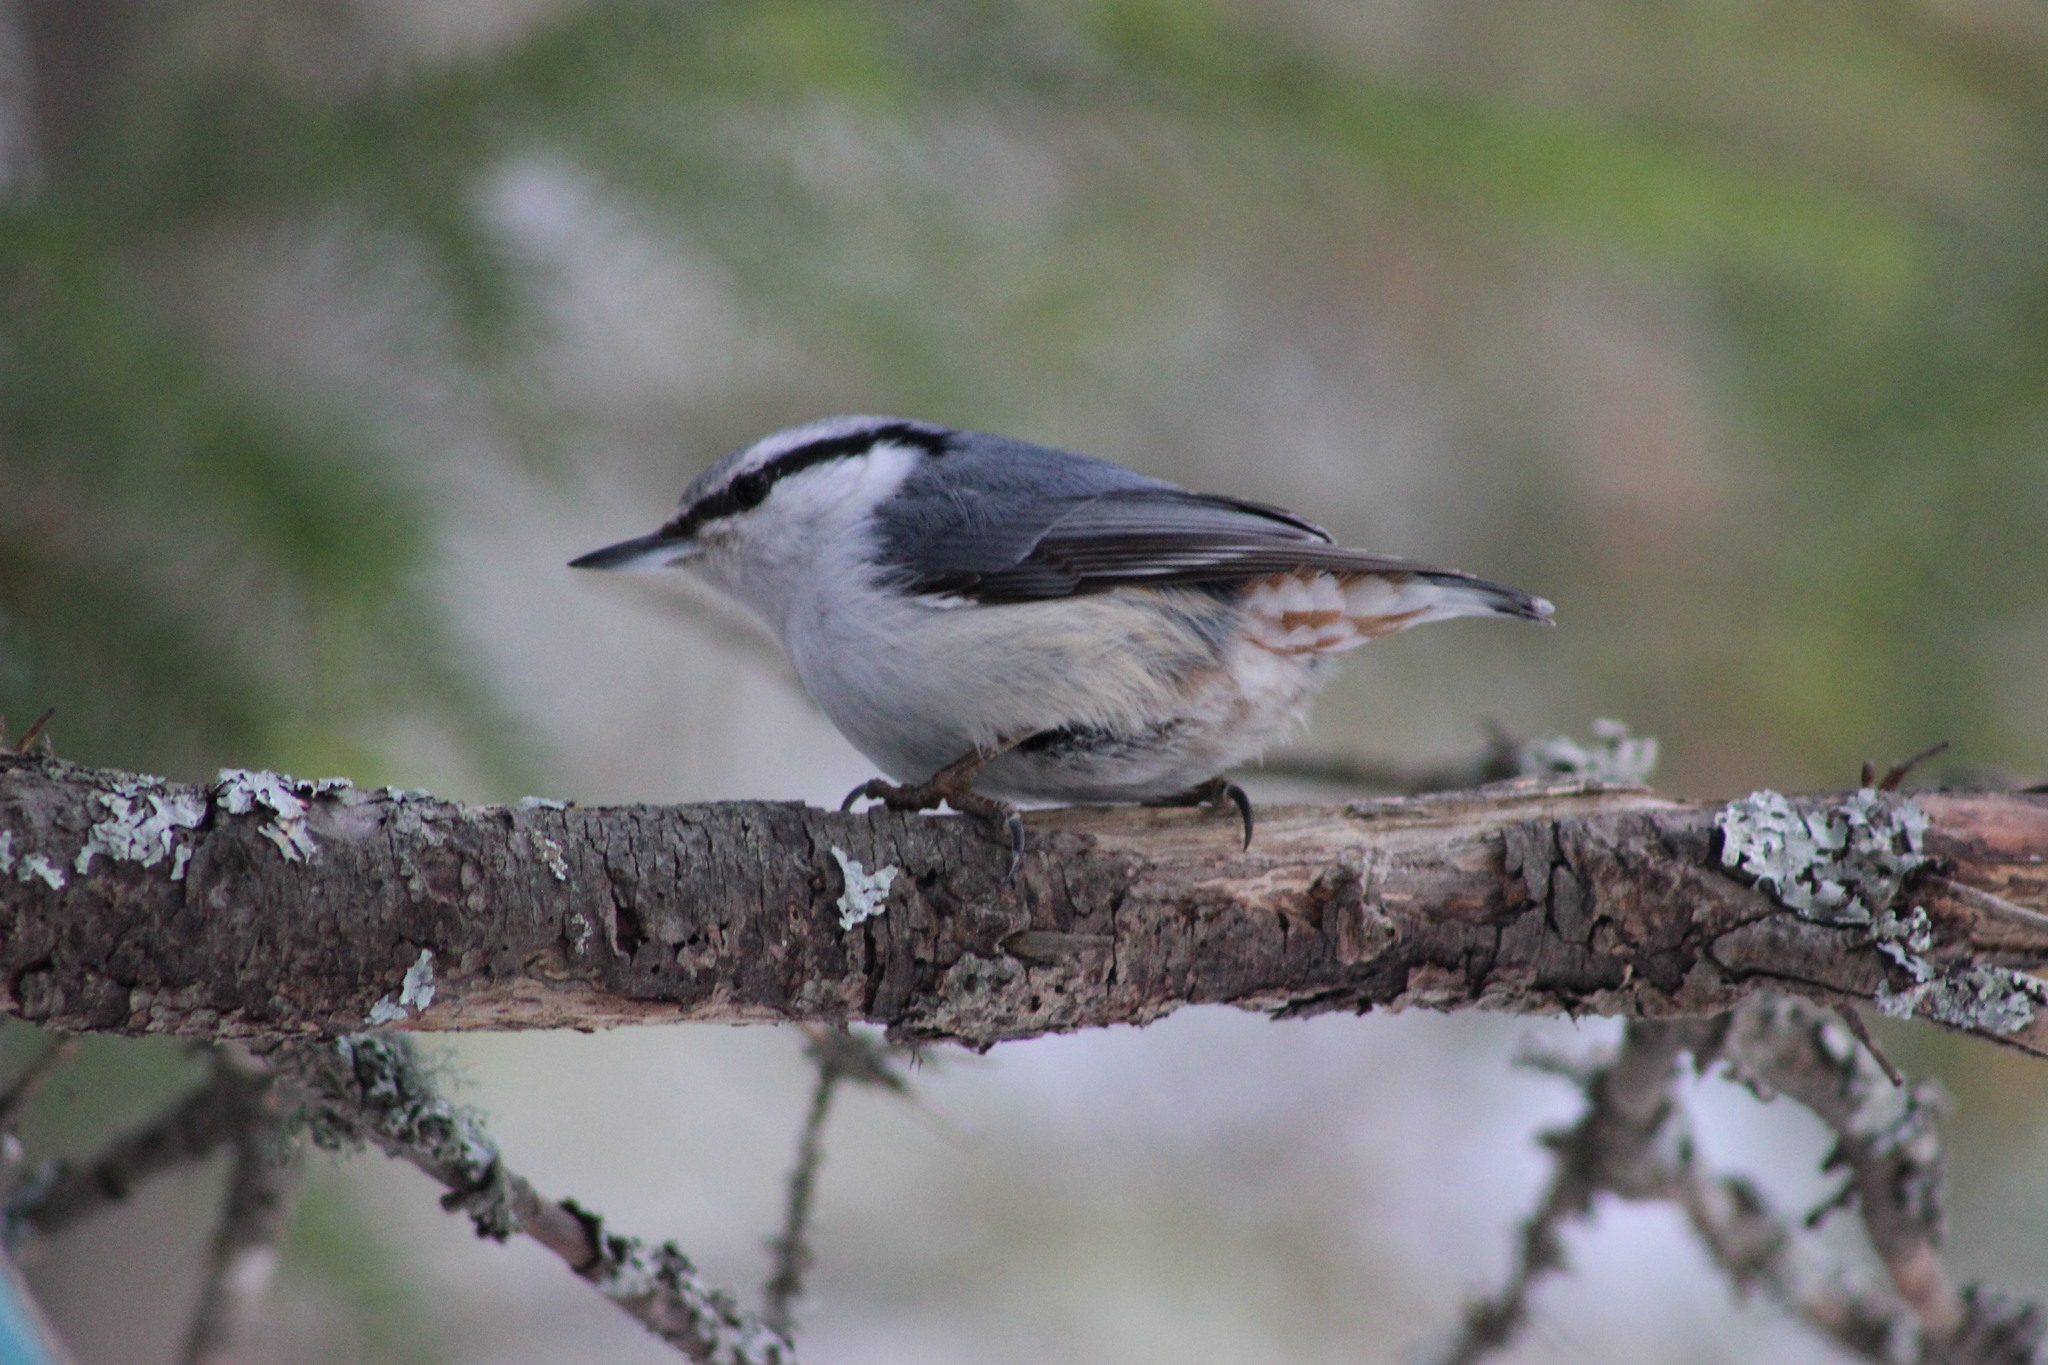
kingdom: Animalia
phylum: Chordata
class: Aves
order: Passeriformes
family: Sittidae
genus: Sitta
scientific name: Sitta europaea
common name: Eurasian nuthatch
